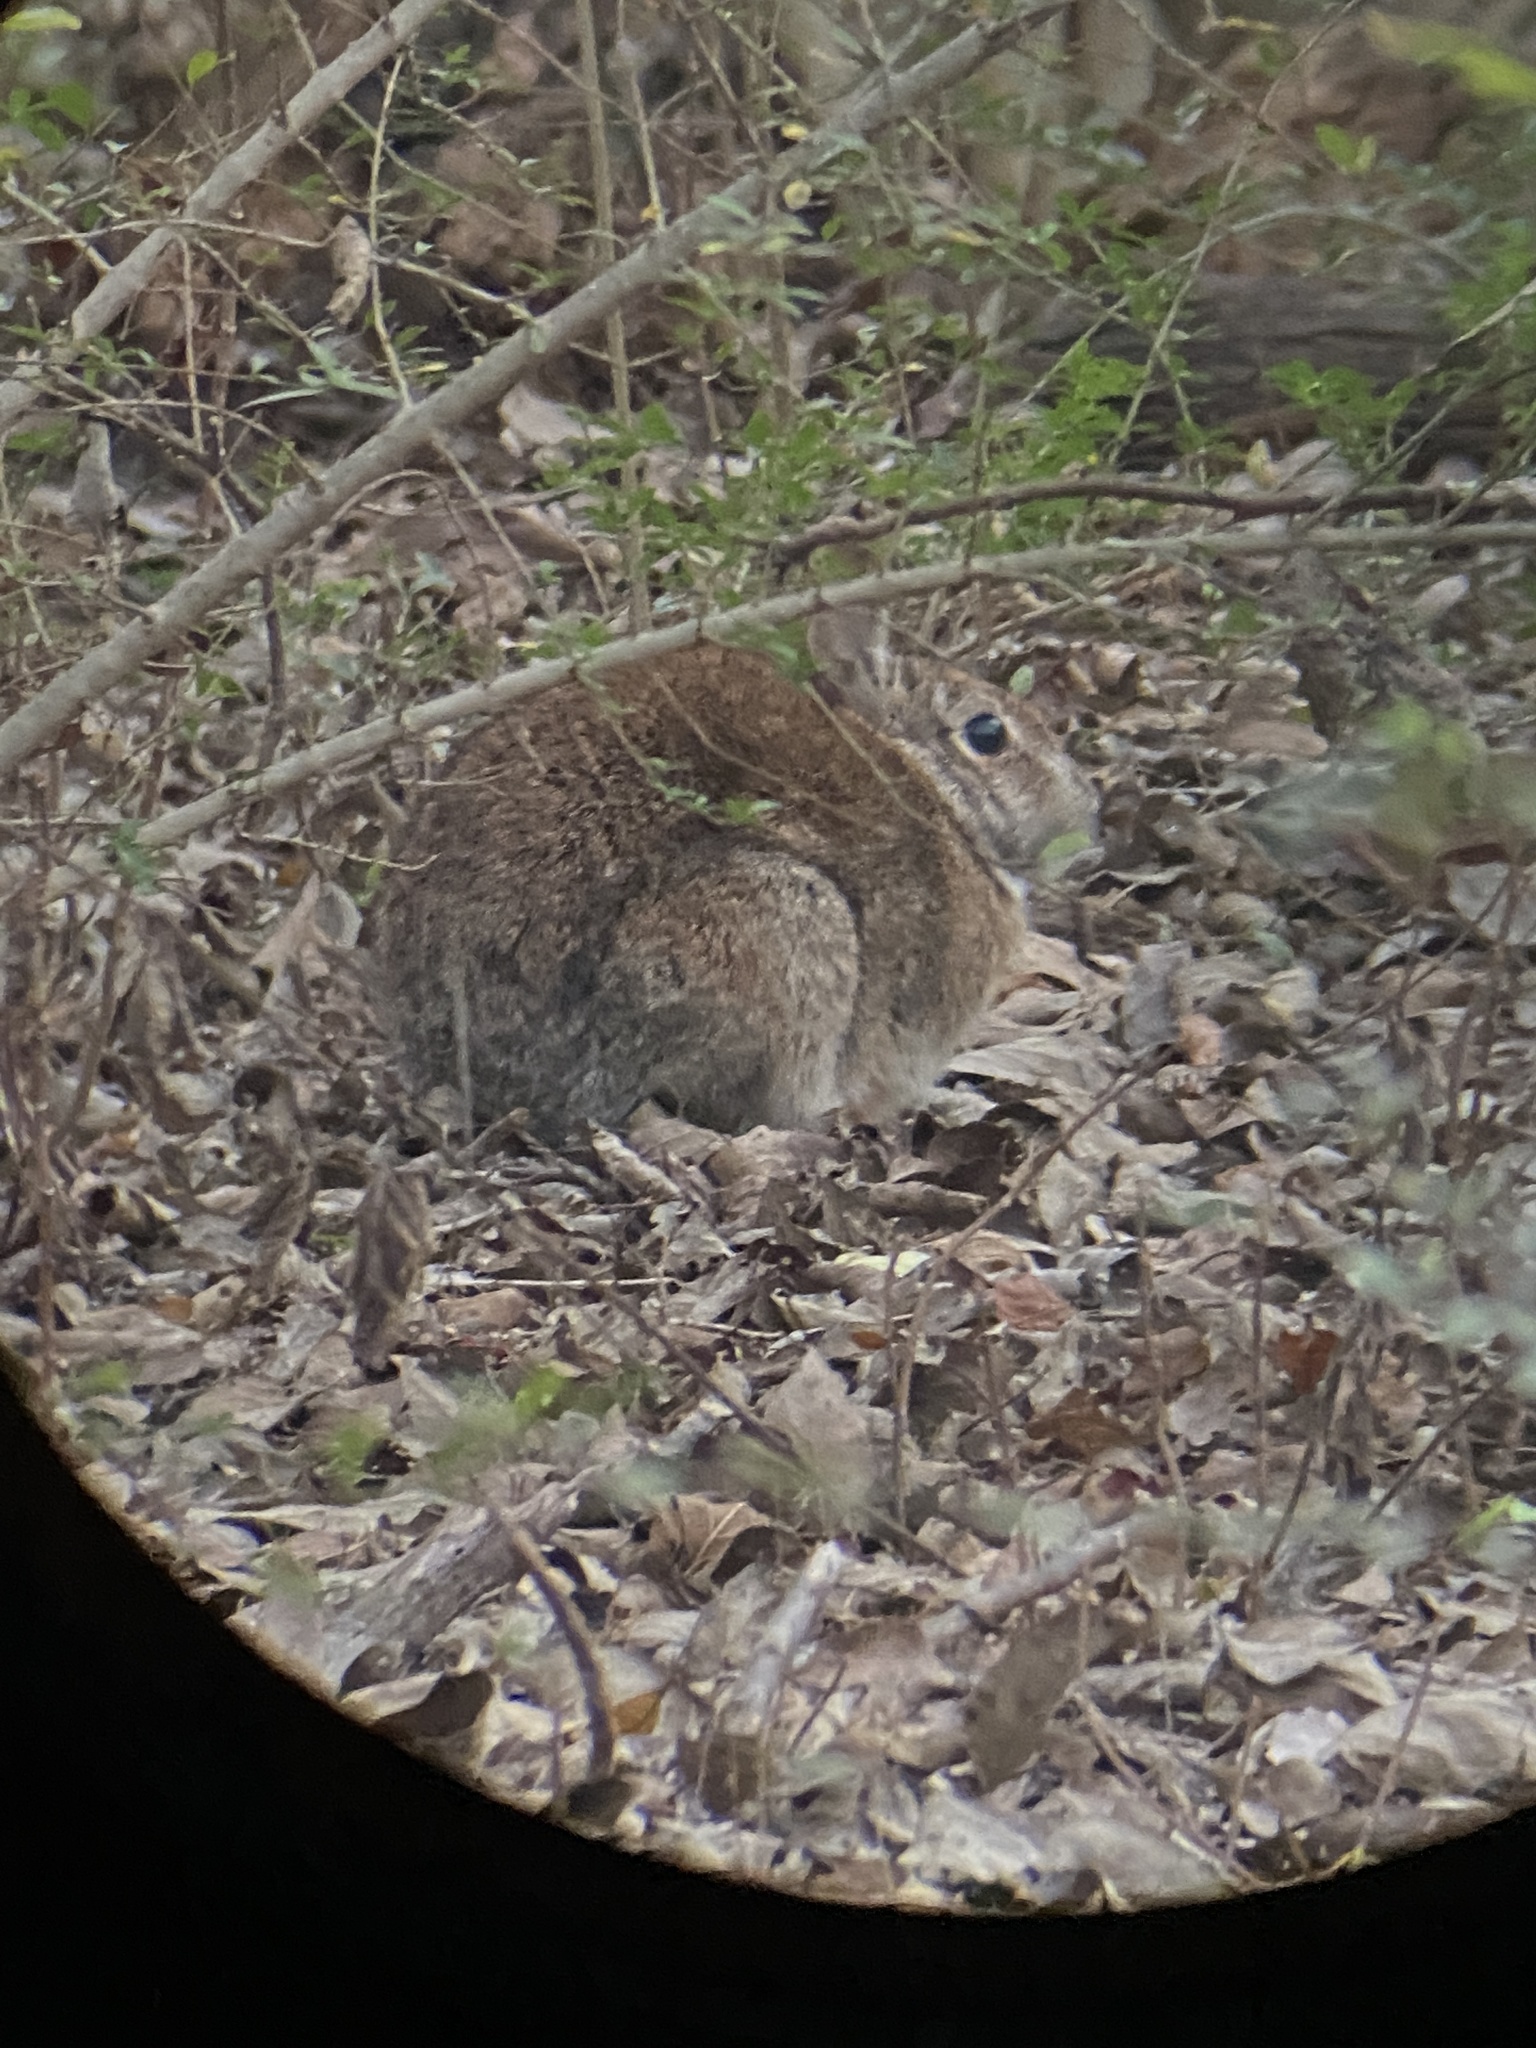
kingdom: Animalia
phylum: Chordata
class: Mammalia
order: Lagomorpha
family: Leporidae
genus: Sylvilagus
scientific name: Sylvilagus floridanus
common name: Eastern cottontail
